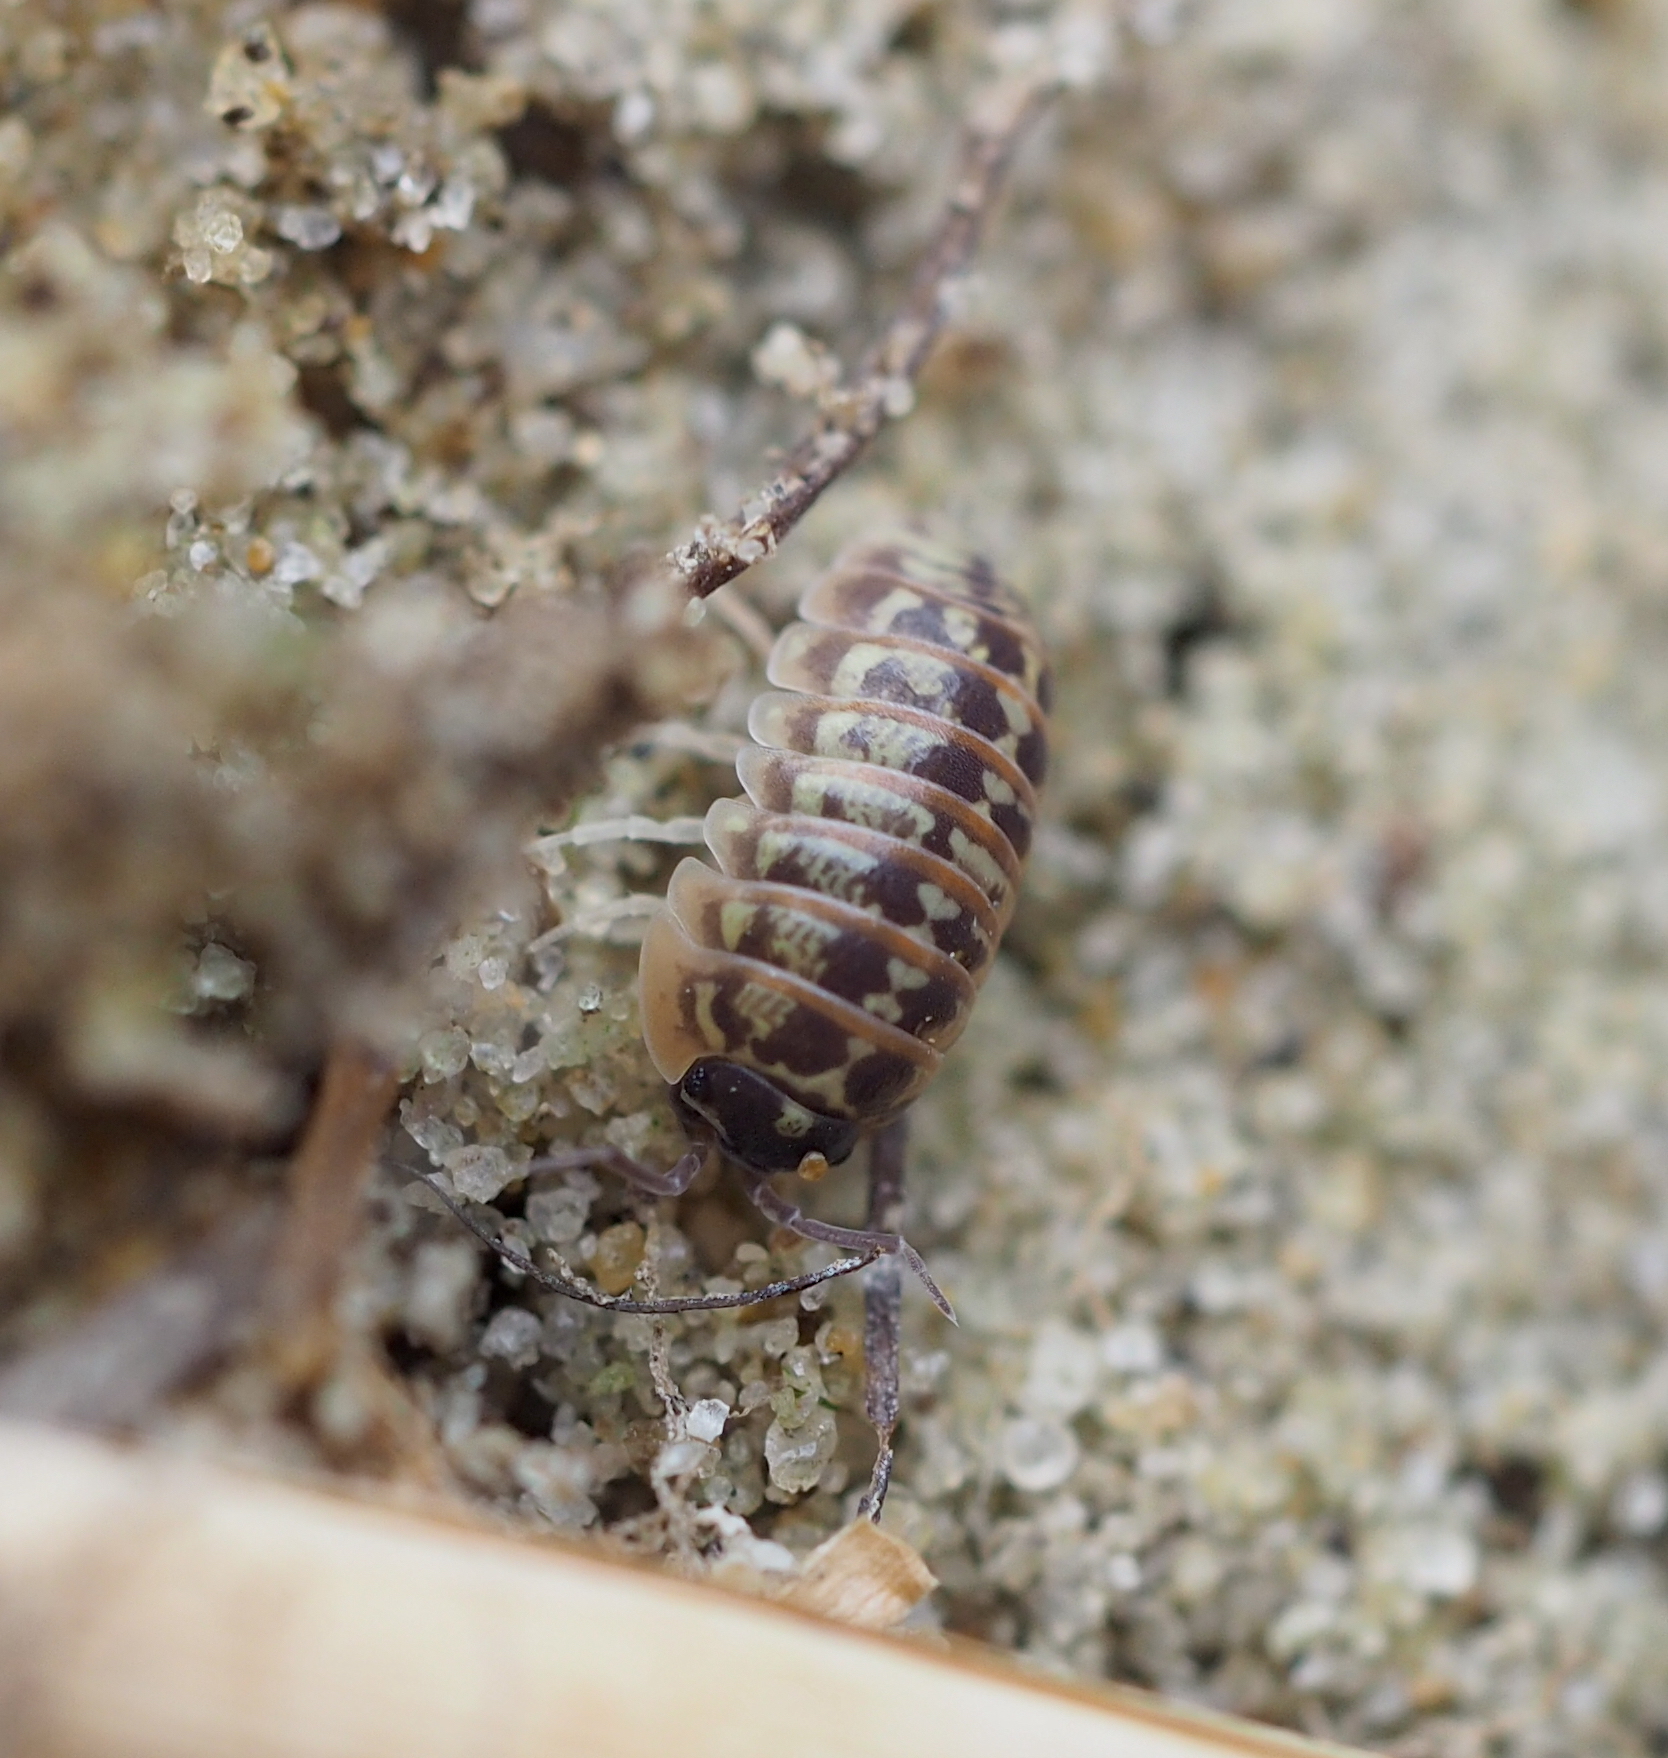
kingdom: Animalia
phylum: Arthropoda
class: Malacostraca
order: Isopoda
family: Armadillidiidae
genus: Armadillidium
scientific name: Armadillidium versicolor
